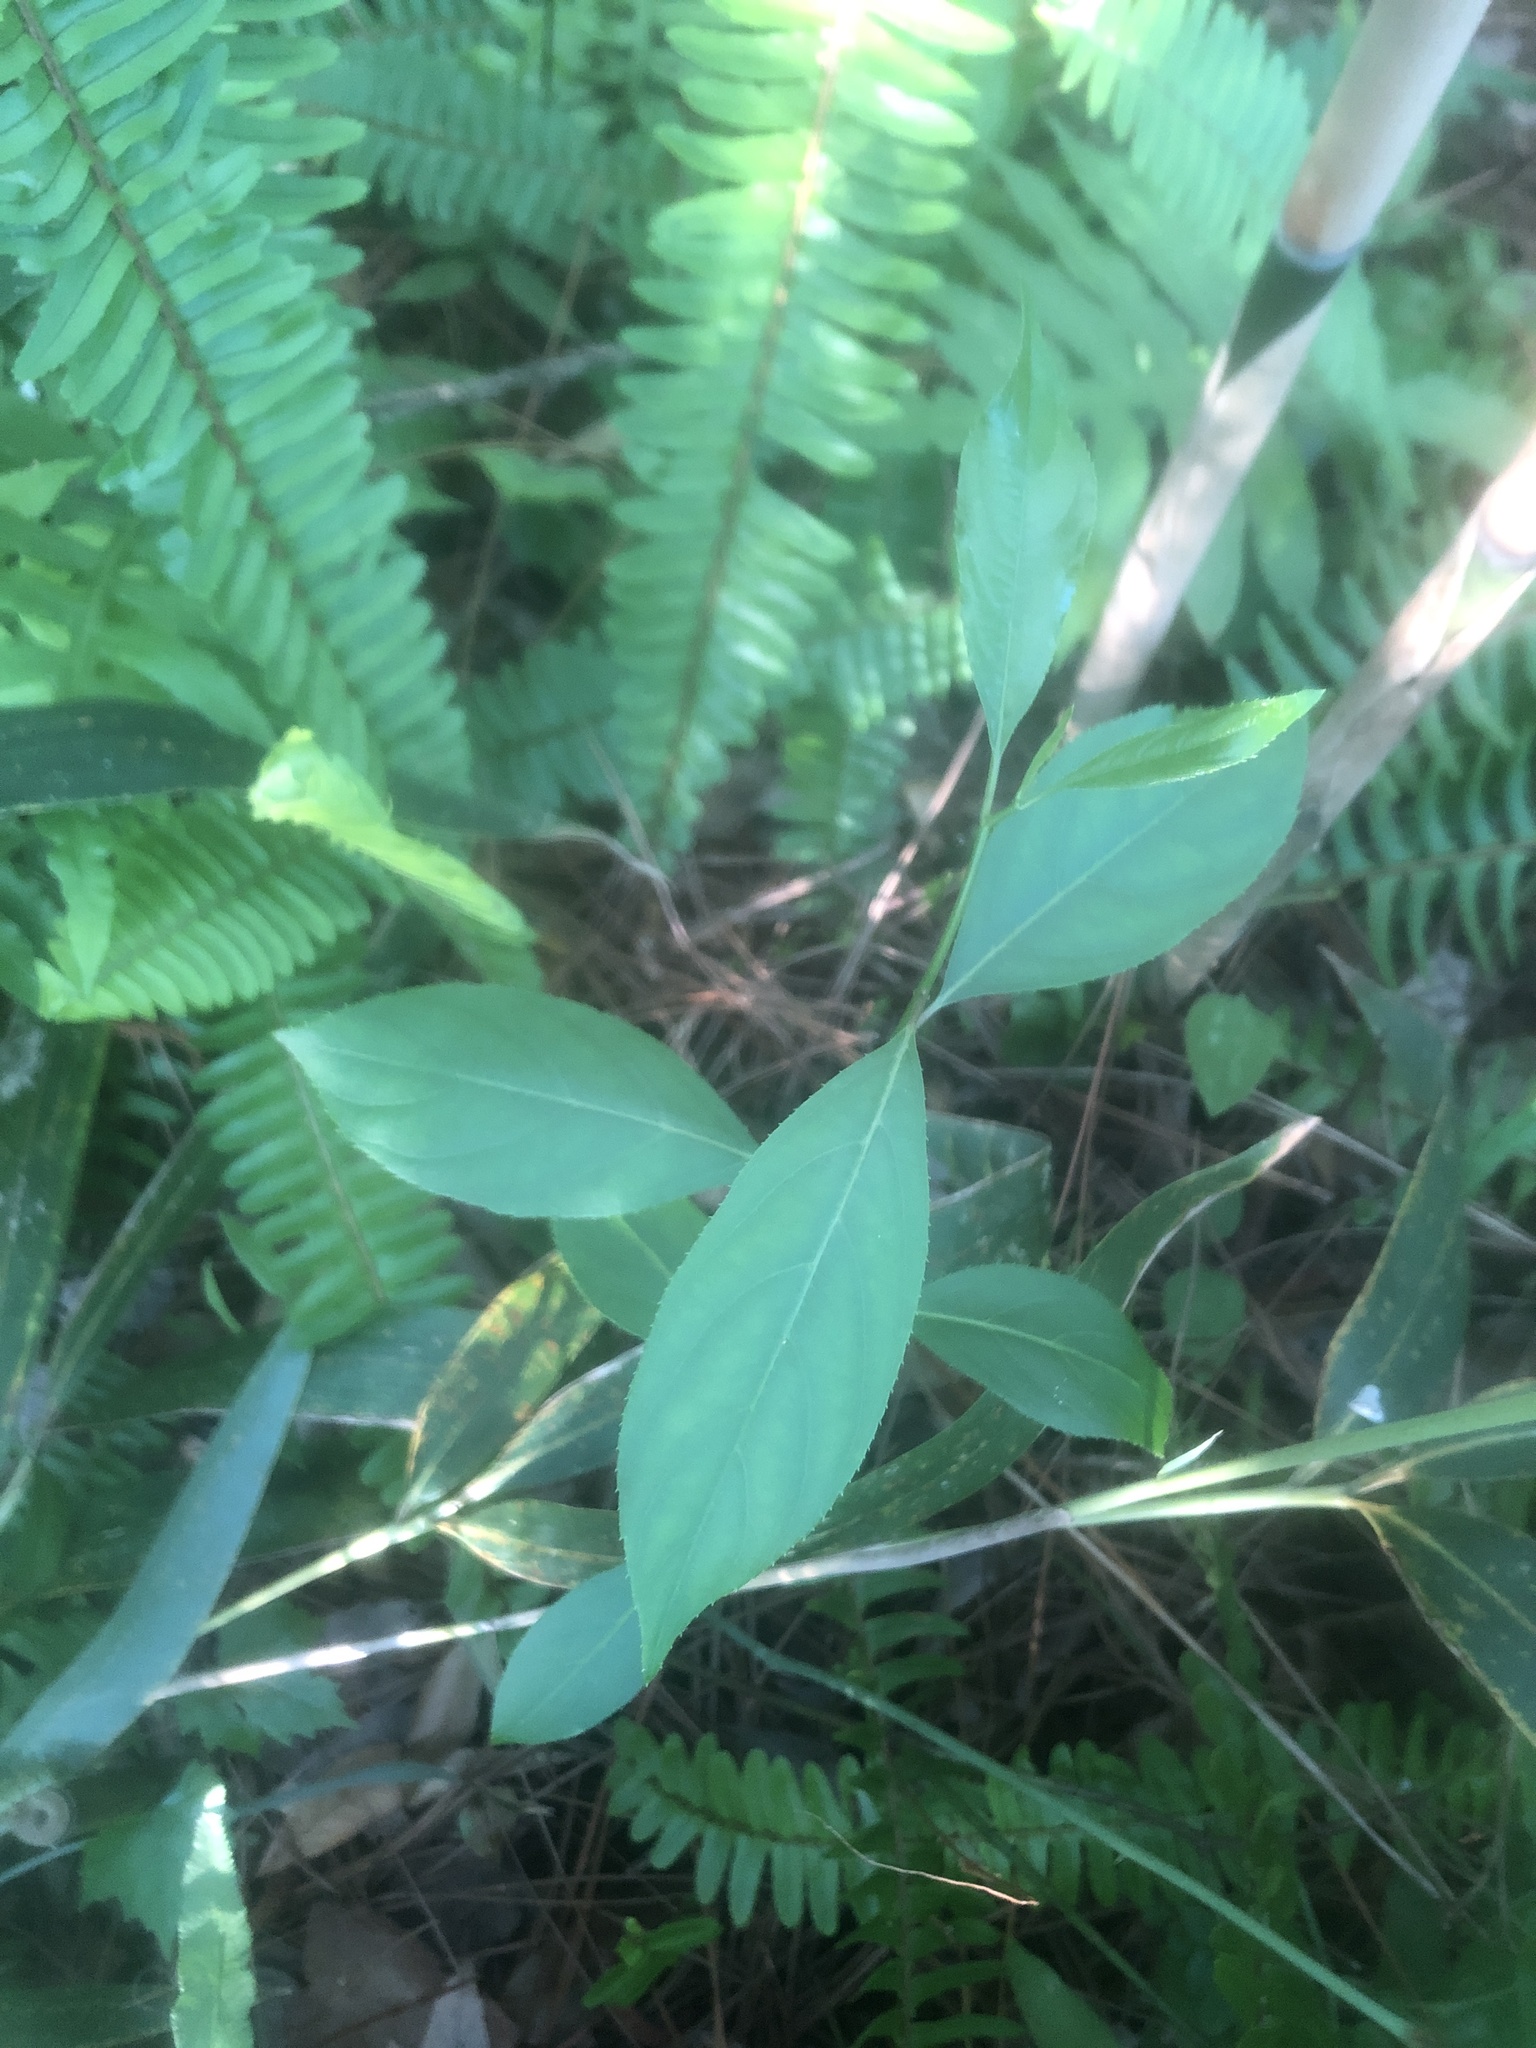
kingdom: Plantae
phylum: Tracheophyta
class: Magnoliopsida
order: Saxifragales
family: Iteaceae
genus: Itea
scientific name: Itea virginica
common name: Sweetspire
